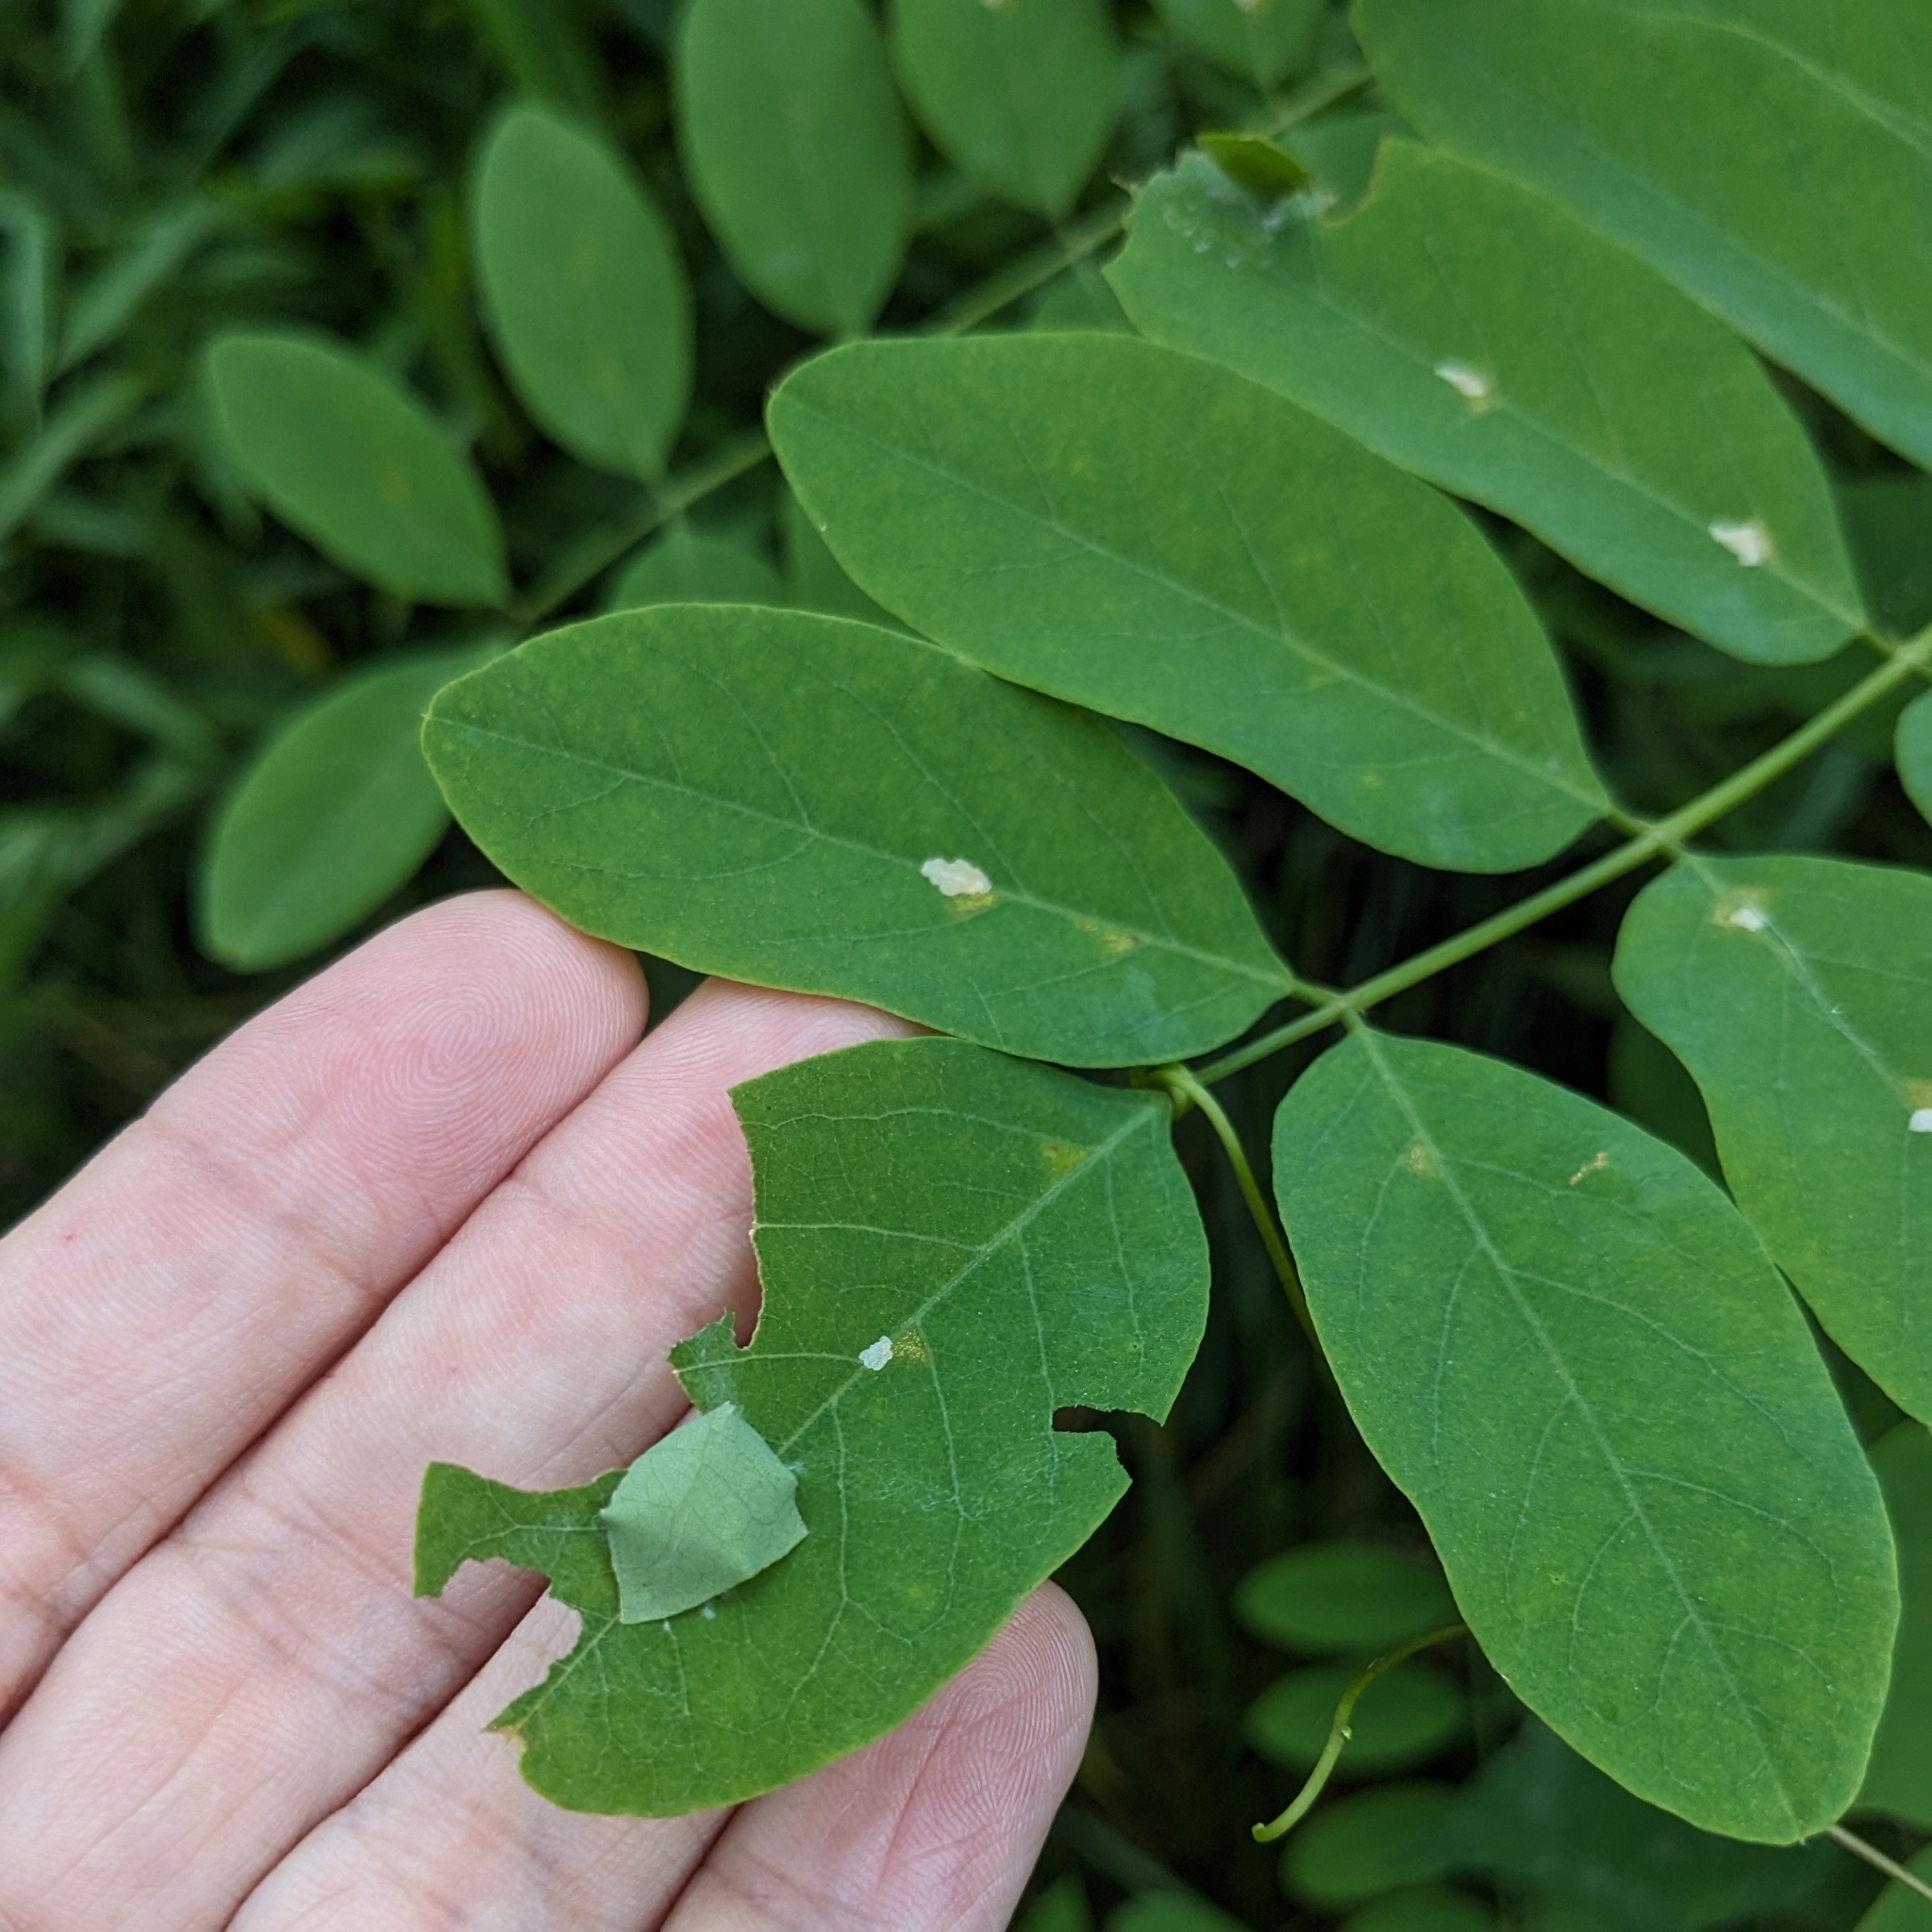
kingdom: Animalia
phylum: Arthropoda
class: Insecta
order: Lepidoptera
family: Hesperiidae
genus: Epargyreus
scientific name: Epargyreus clarus
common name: Silver-spotted skipper
